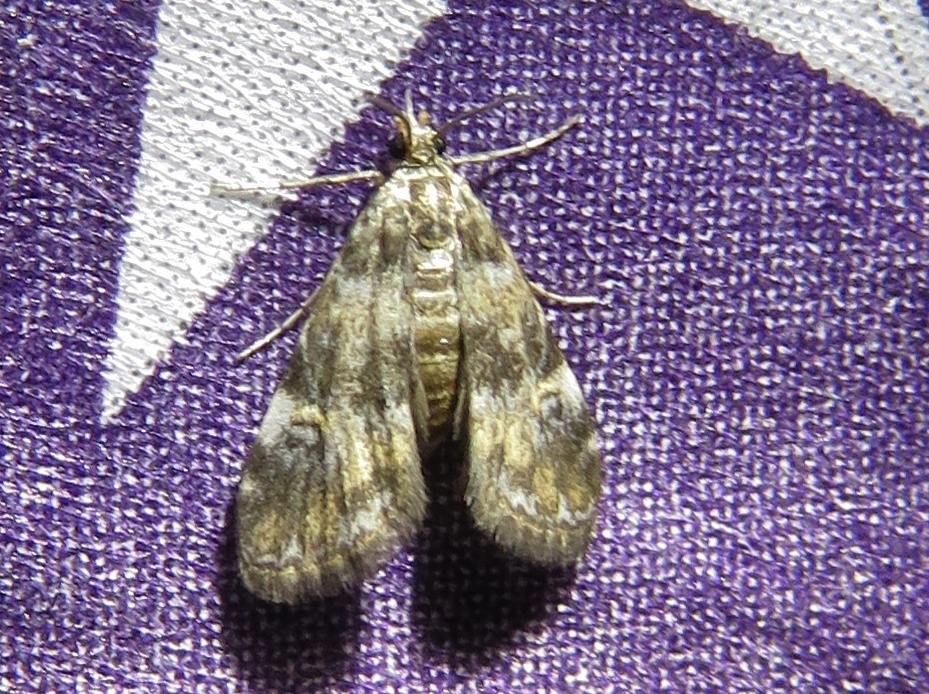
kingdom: Animalia
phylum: Arthropoda
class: Insecta
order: Lepidoptera
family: Crambidae
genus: Elophila
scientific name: Elophila obliteralis
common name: Waterlily leafcutter moth
